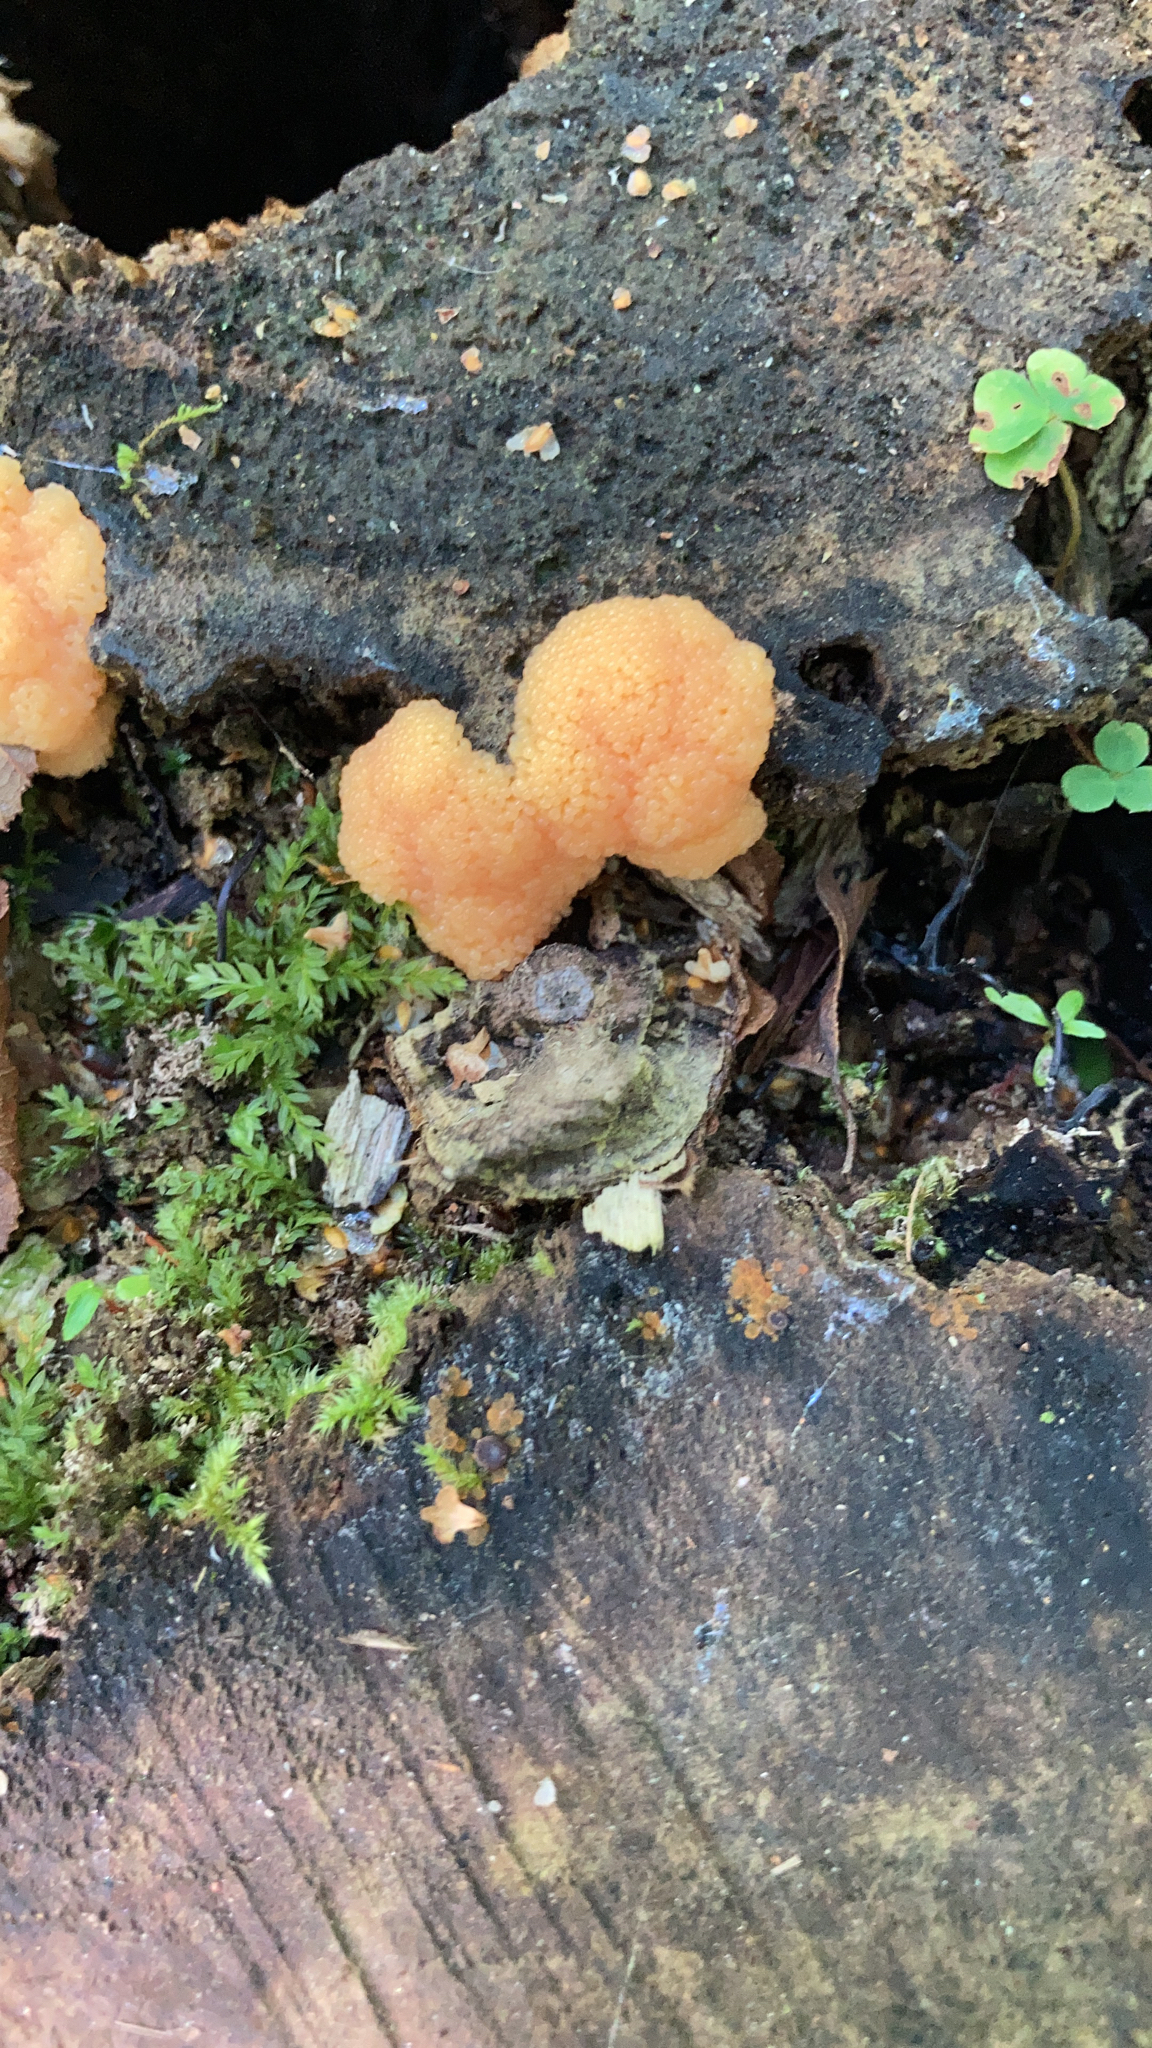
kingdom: Protozoa
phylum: Mycetozoa
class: Myxomycetes
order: Cribrariales
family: Tubiferaceae
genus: Tubifera
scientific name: Tubifera ferruginosa
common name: Red raspberry slime mold
